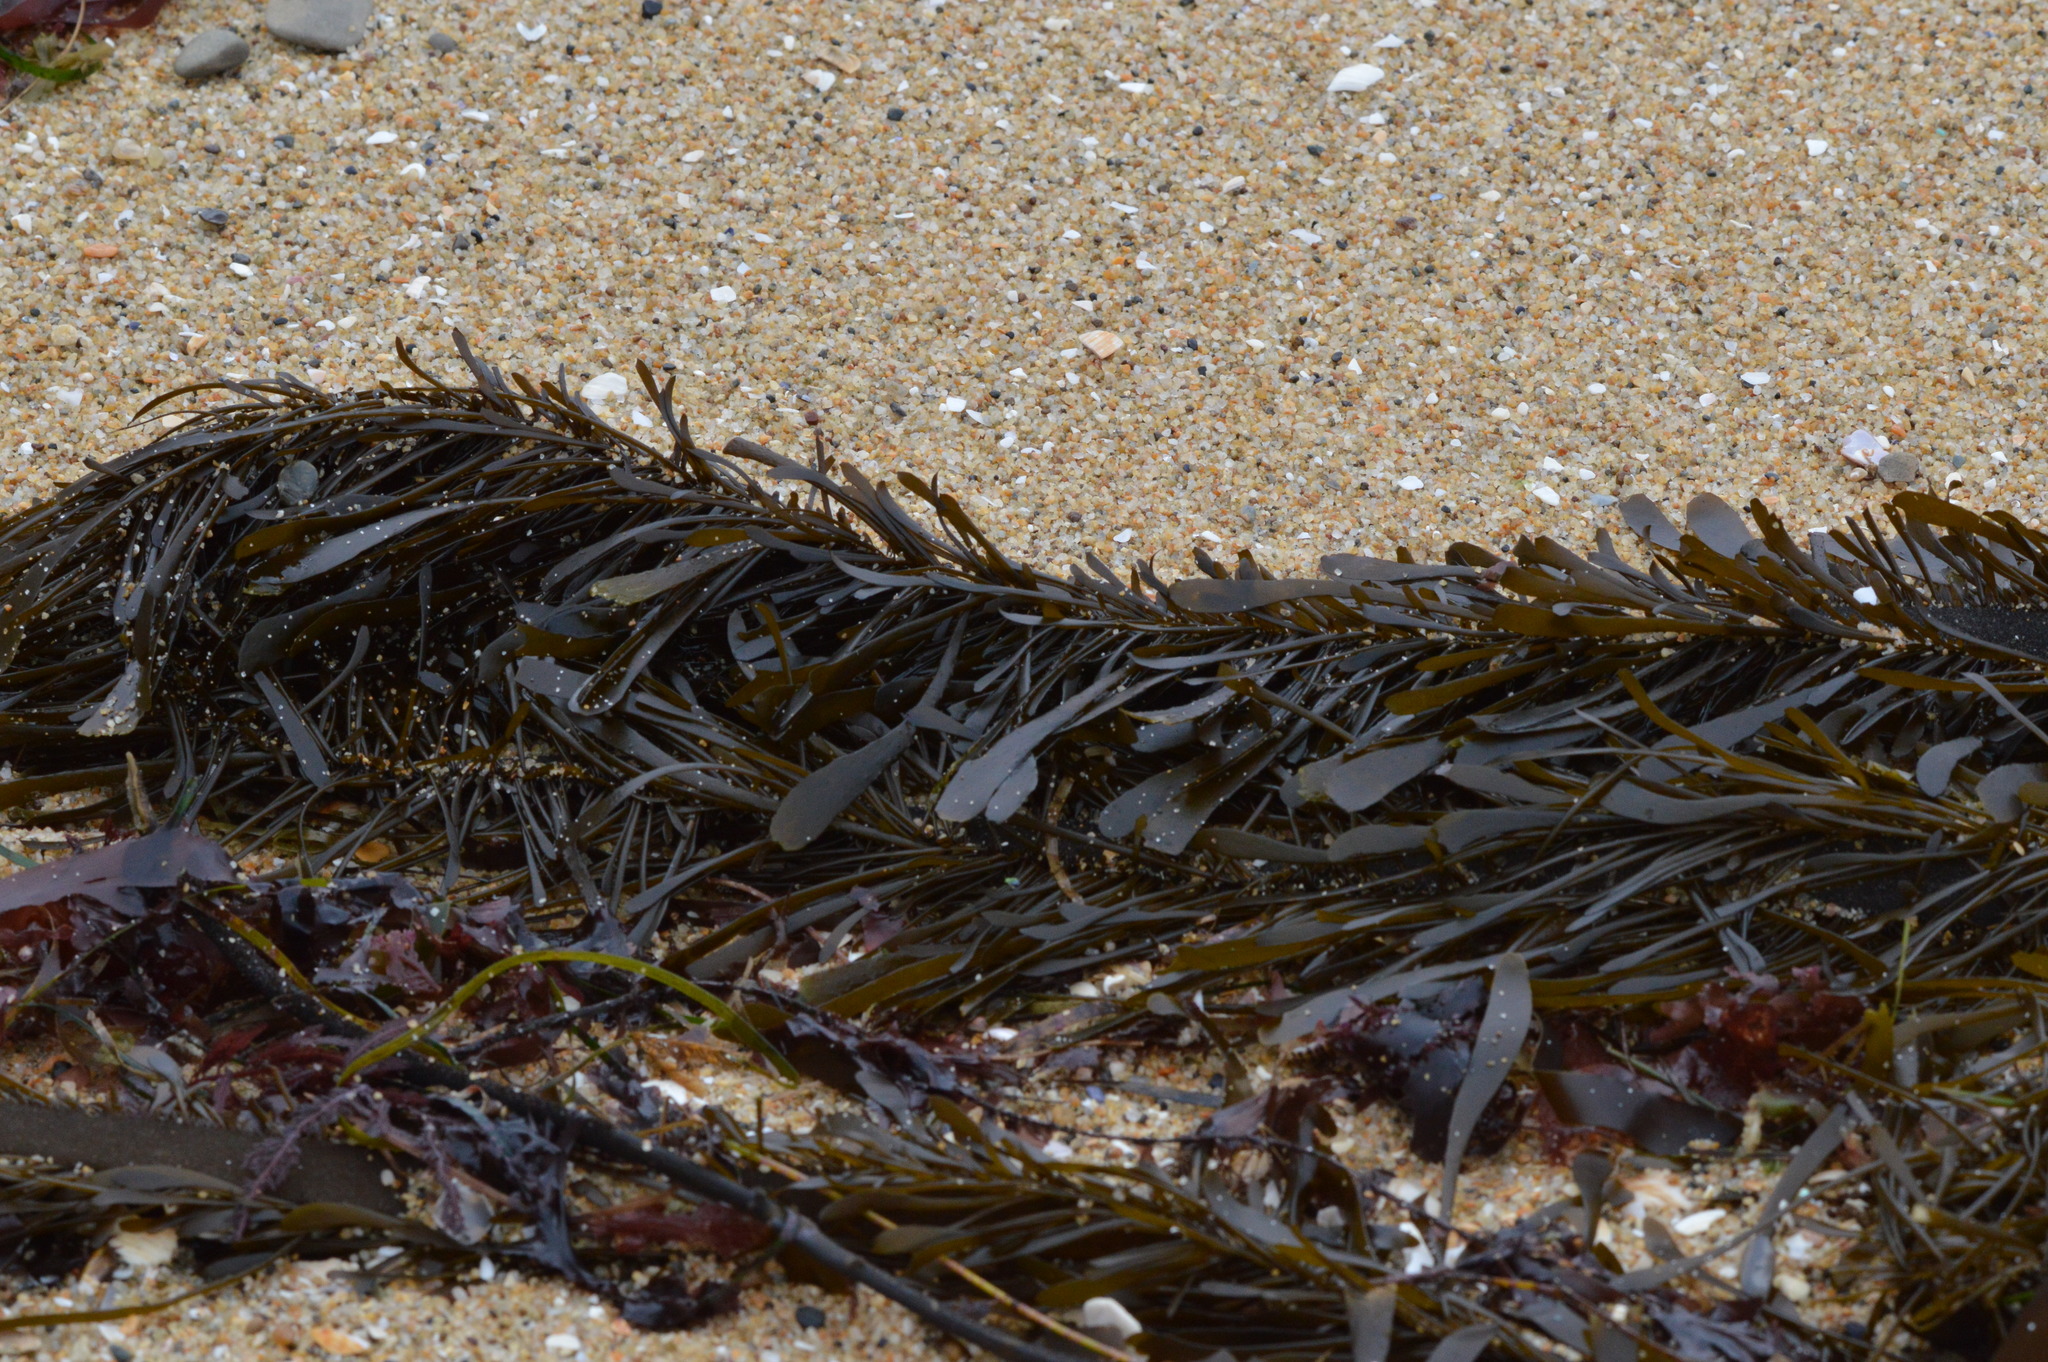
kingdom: Chromista
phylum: Ochrophyta
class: Phaeophyceae
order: Laminariales
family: Lessoniaceae
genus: Egregia
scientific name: Egregia menziesii
